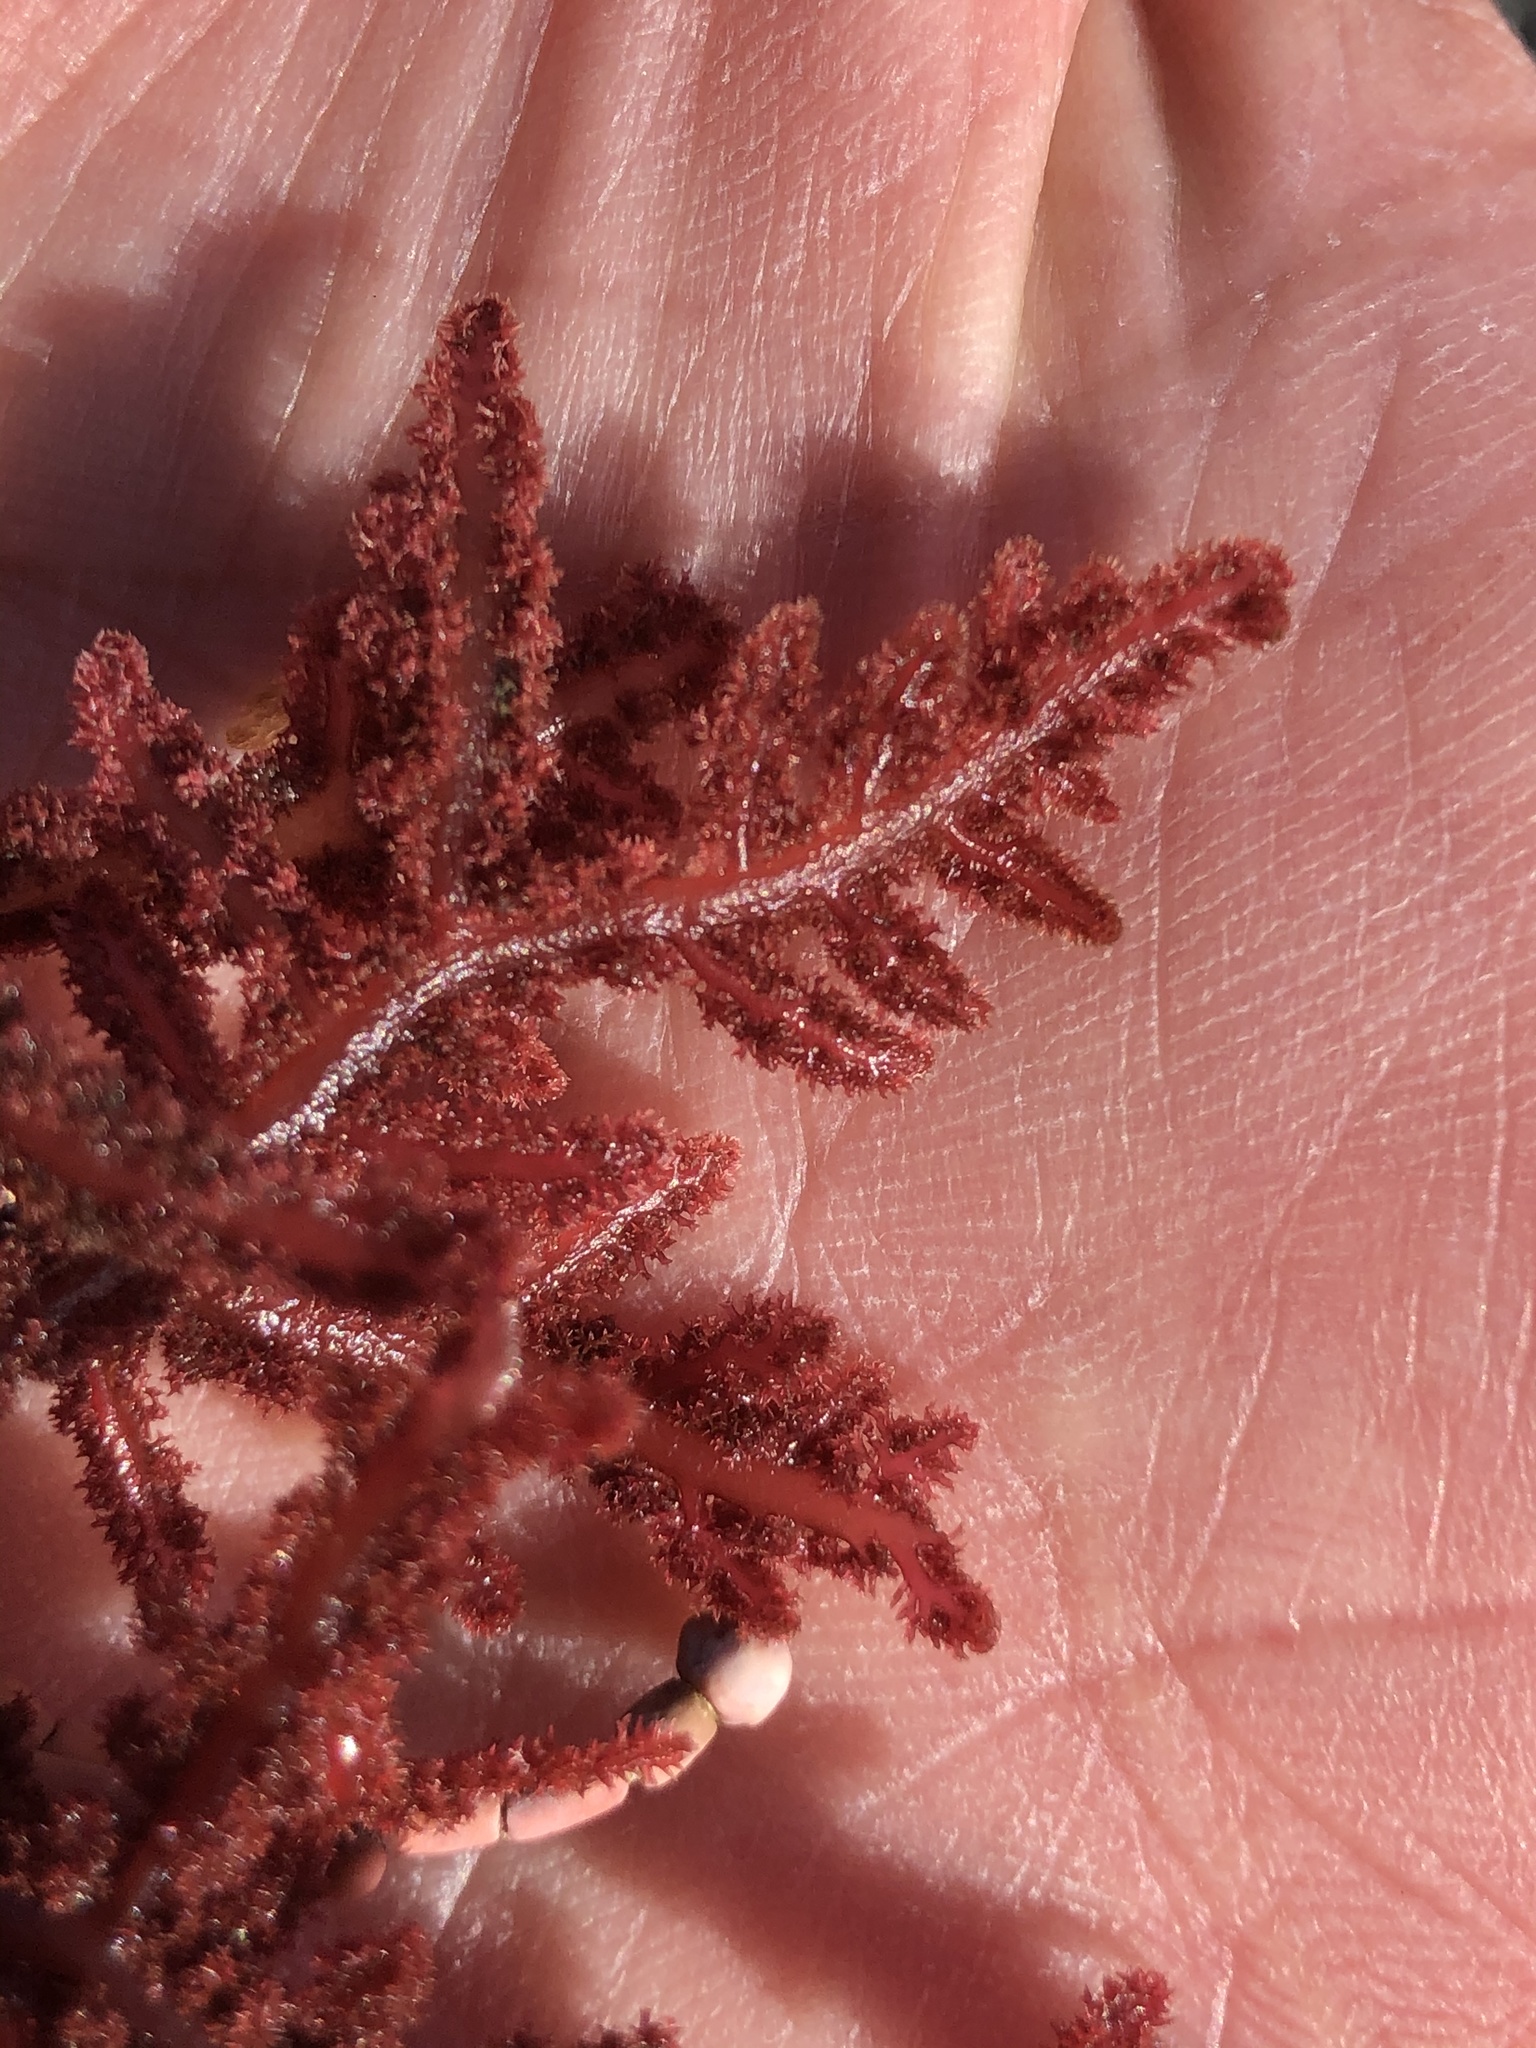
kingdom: Plantae
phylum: Rhodophyta
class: Florideophyceae
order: Ceramiales
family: Wrangeliaceae
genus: Neoptilota
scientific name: Neoptilota densa
